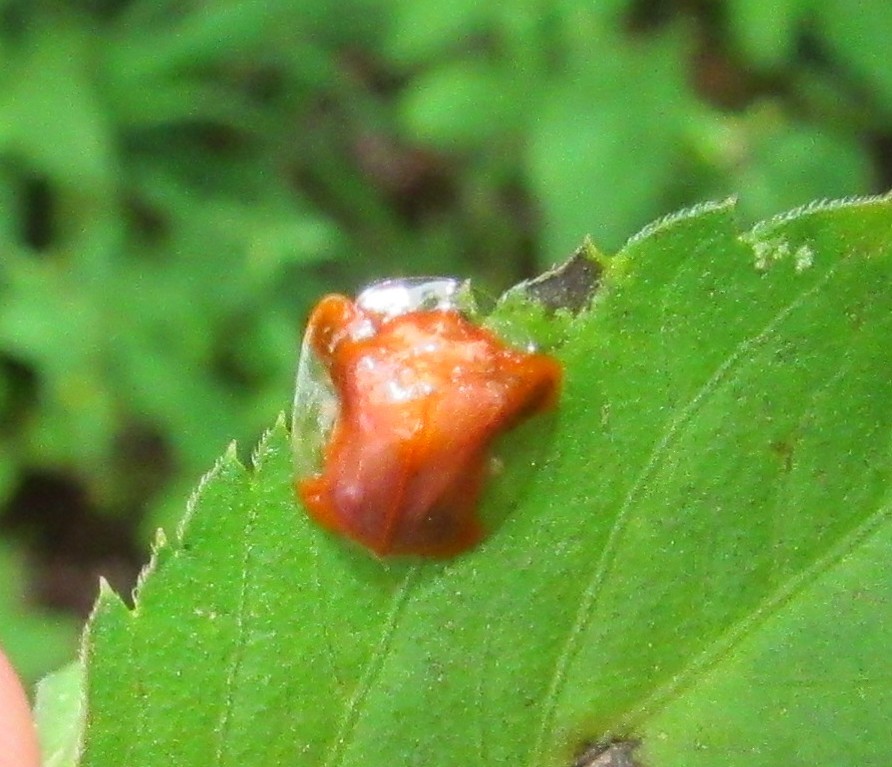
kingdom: Animalia
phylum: Arthropoda
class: Insecta
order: Coleoptera
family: Chrysomelidae
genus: Charidotella
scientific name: Charidotella rubicunda
